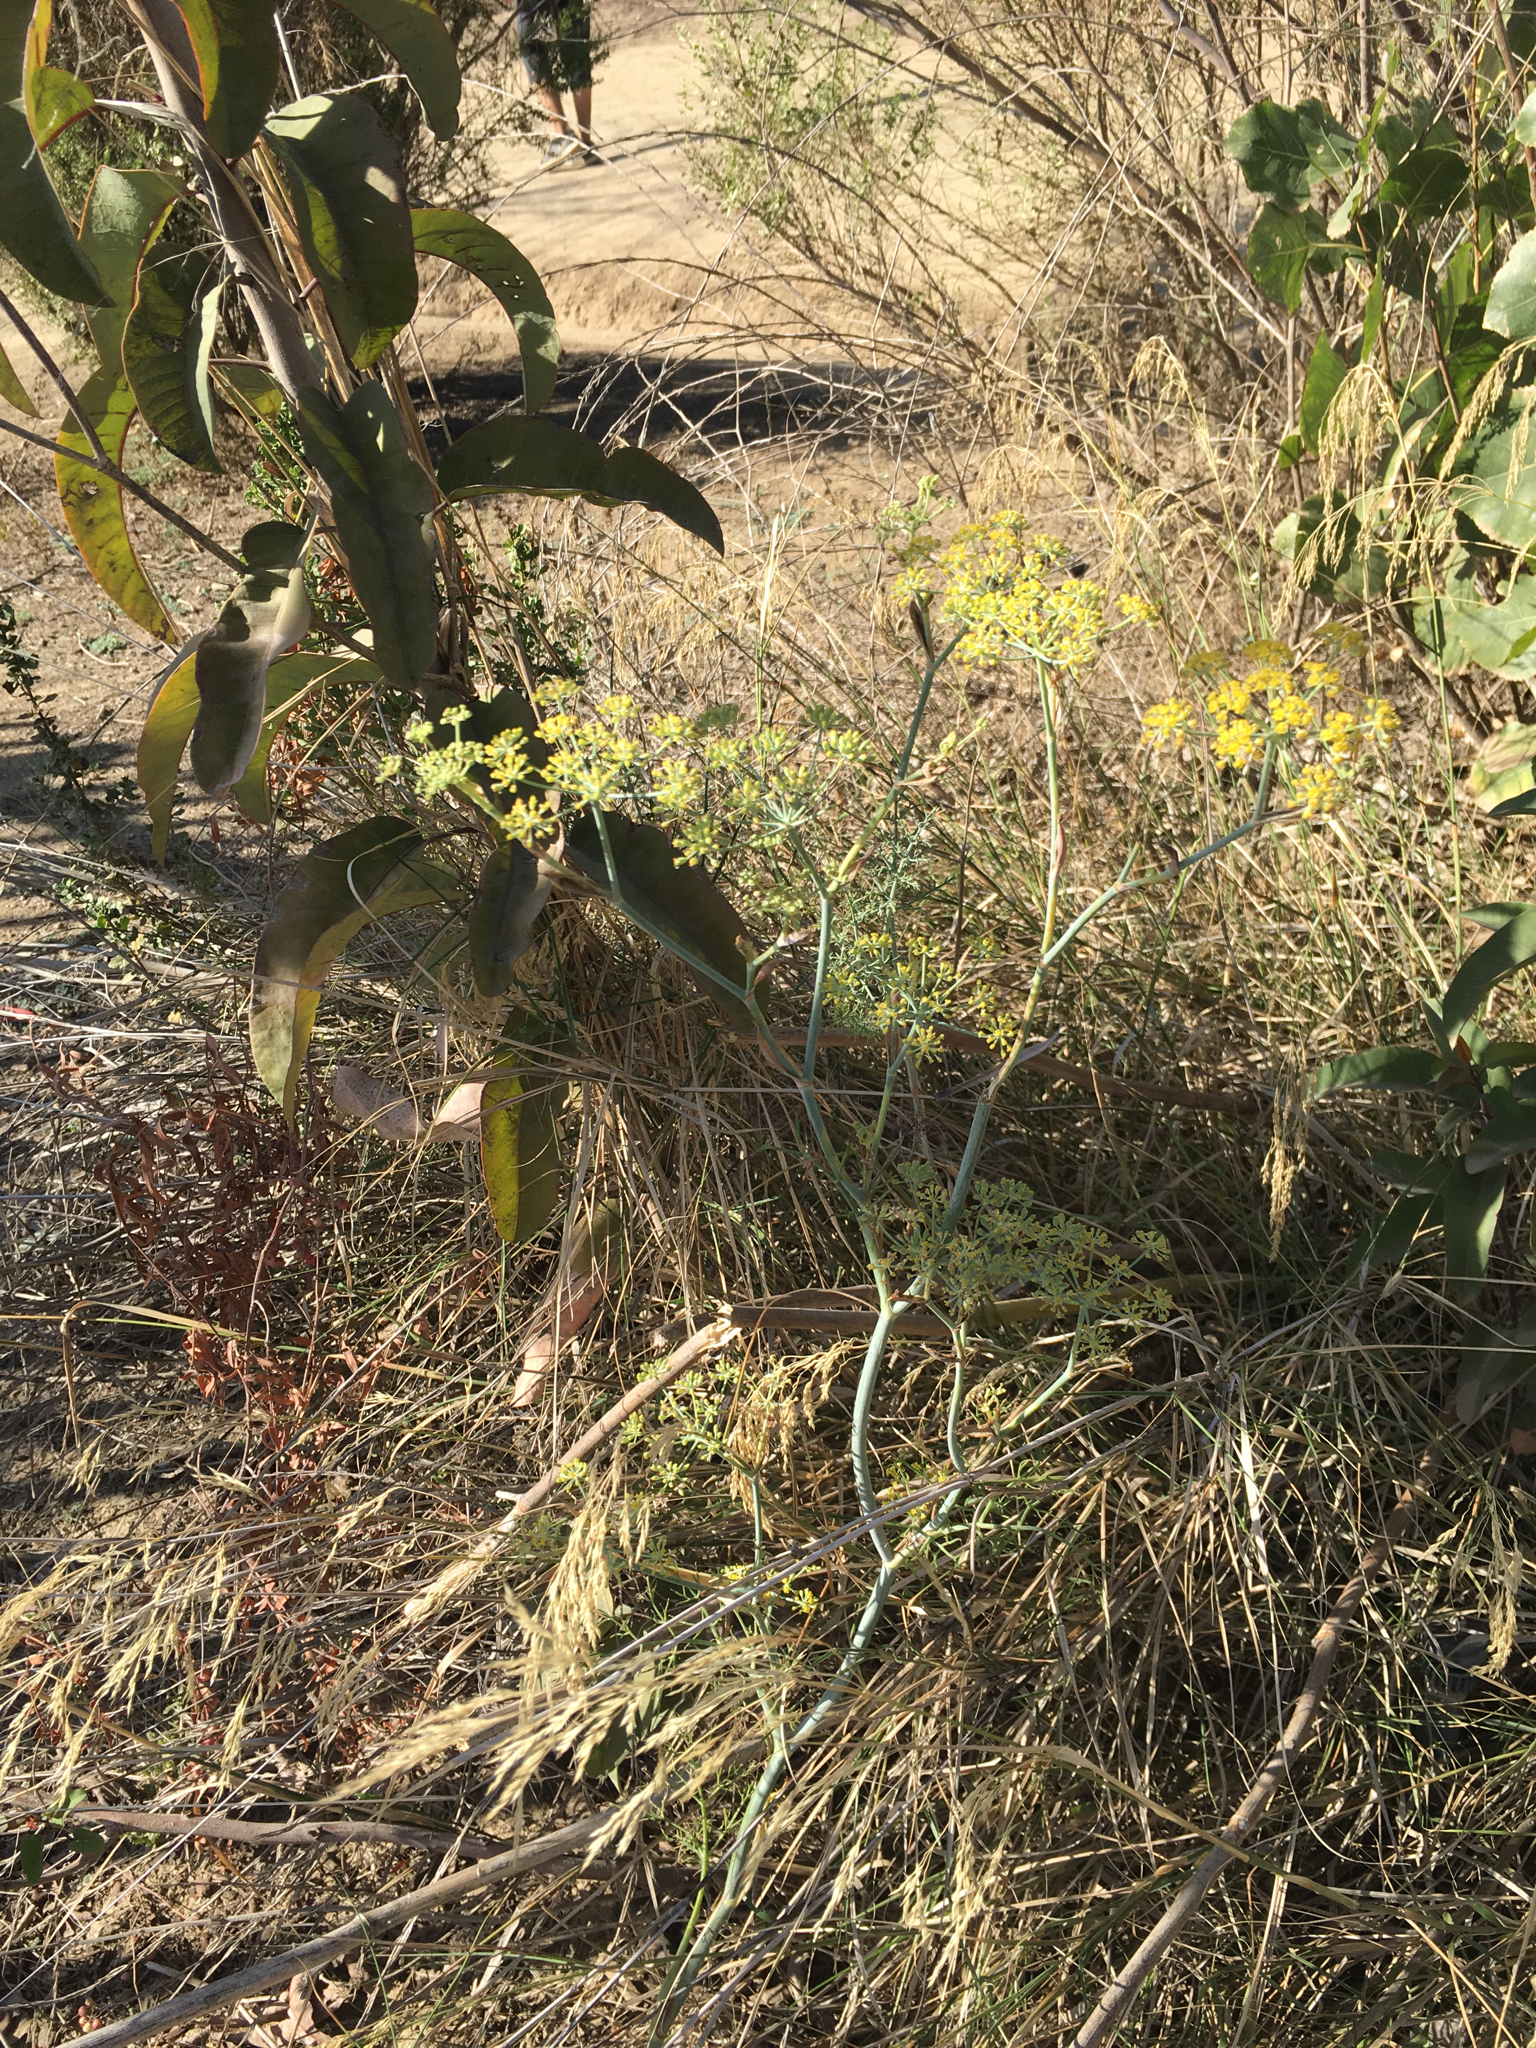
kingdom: Plantae
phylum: Tracheophyta
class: Magnoliopsida
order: Apiales
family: Apiaceae
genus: Foeniculum
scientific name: Foeniculum vulgare
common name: Fennel
